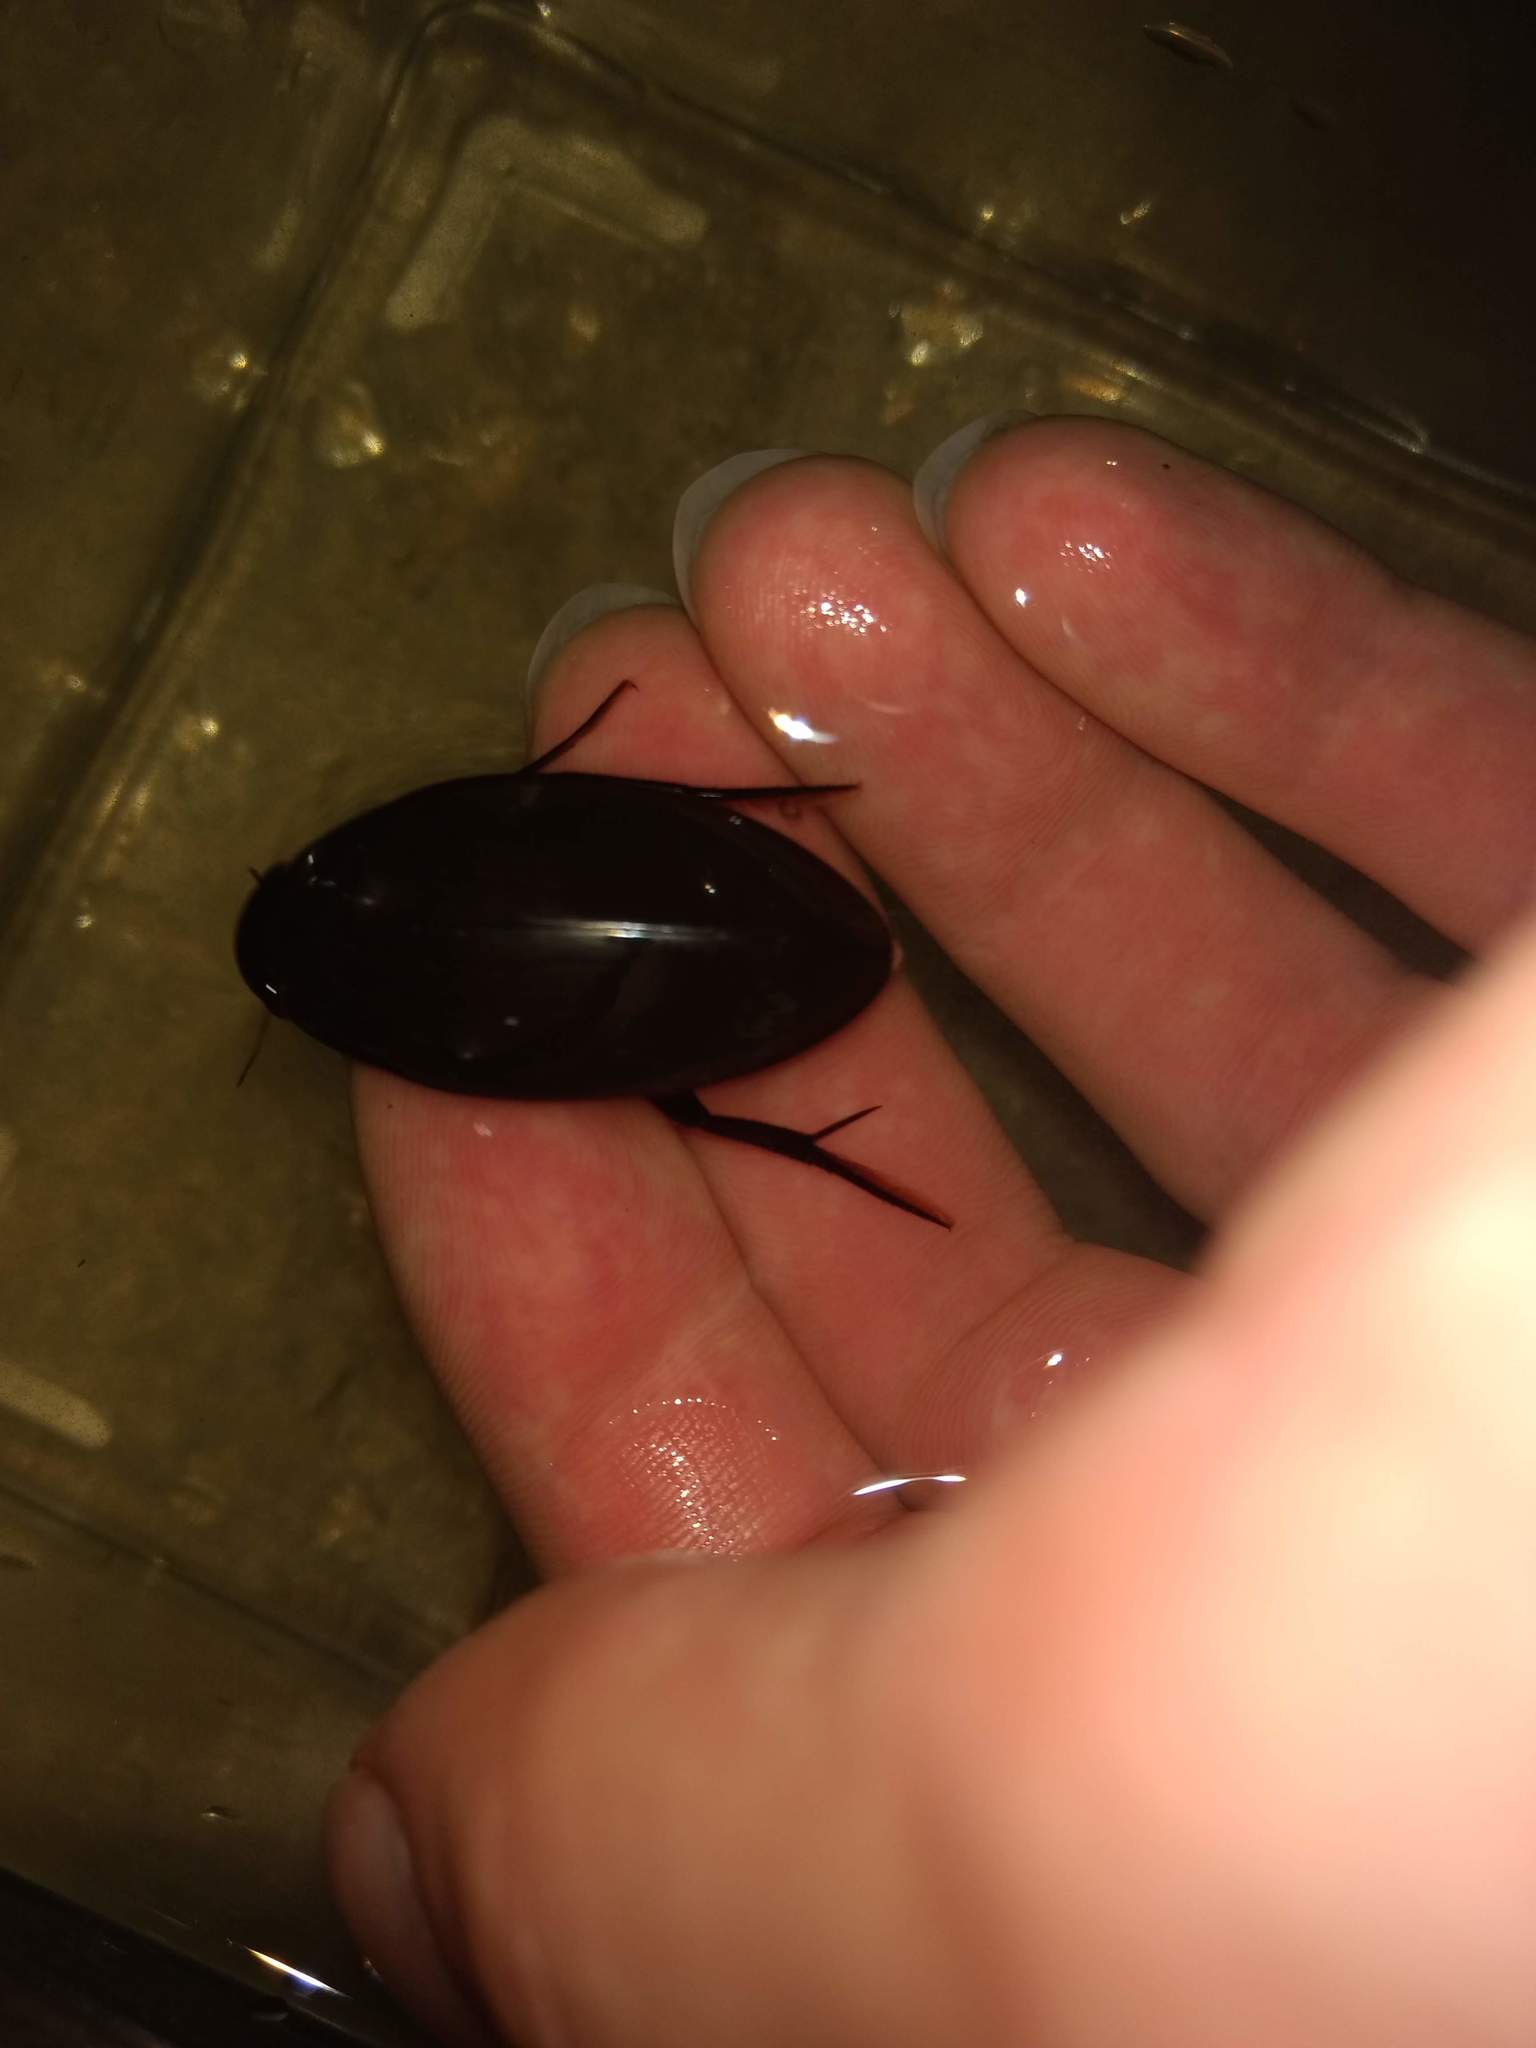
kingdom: Animalia
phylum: Arthropoda
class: Insecta
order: Coleoptera
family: Hydrophilidae
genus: Hydrophilus
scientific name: Hydrophilus triangularis
